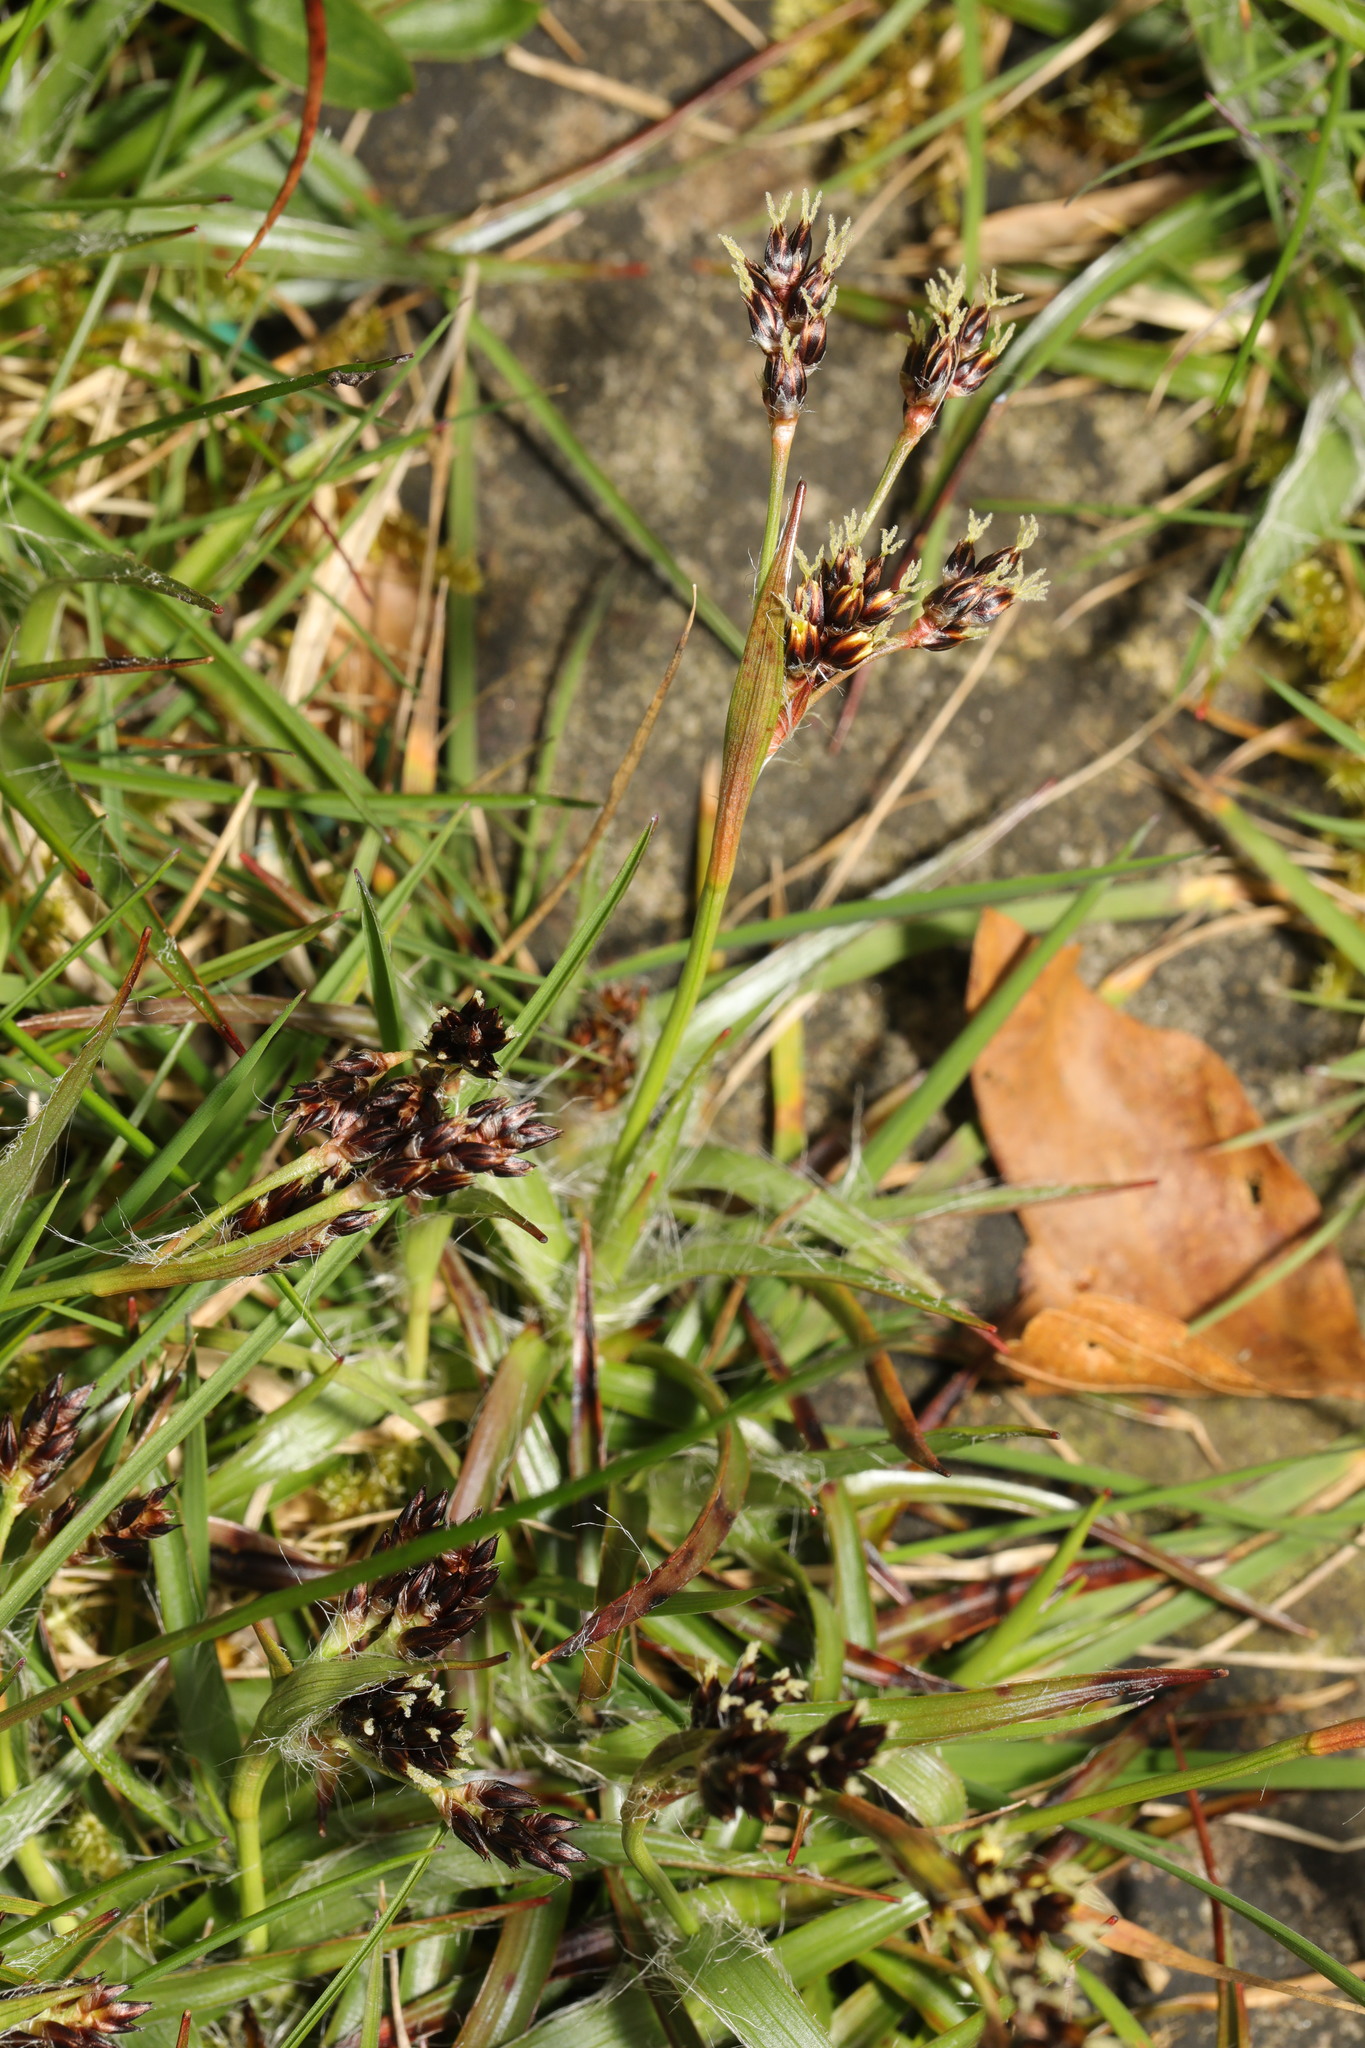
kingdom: Plantae
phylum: Tracheophyta
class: Liliopsida
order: Poales
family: Juncaceae
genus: Luzula
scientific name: Luzula campestris
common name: Field wood-rush
